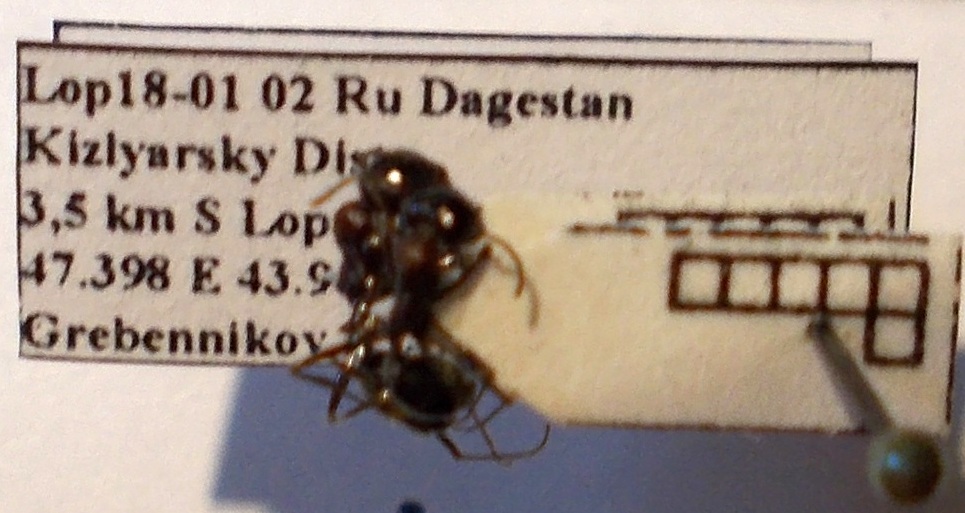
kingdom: Animalia
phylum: Arthropoda
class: Insecta
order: Hymenoptera
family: Formicidae
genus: Messor
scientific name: Messor denticulatus
